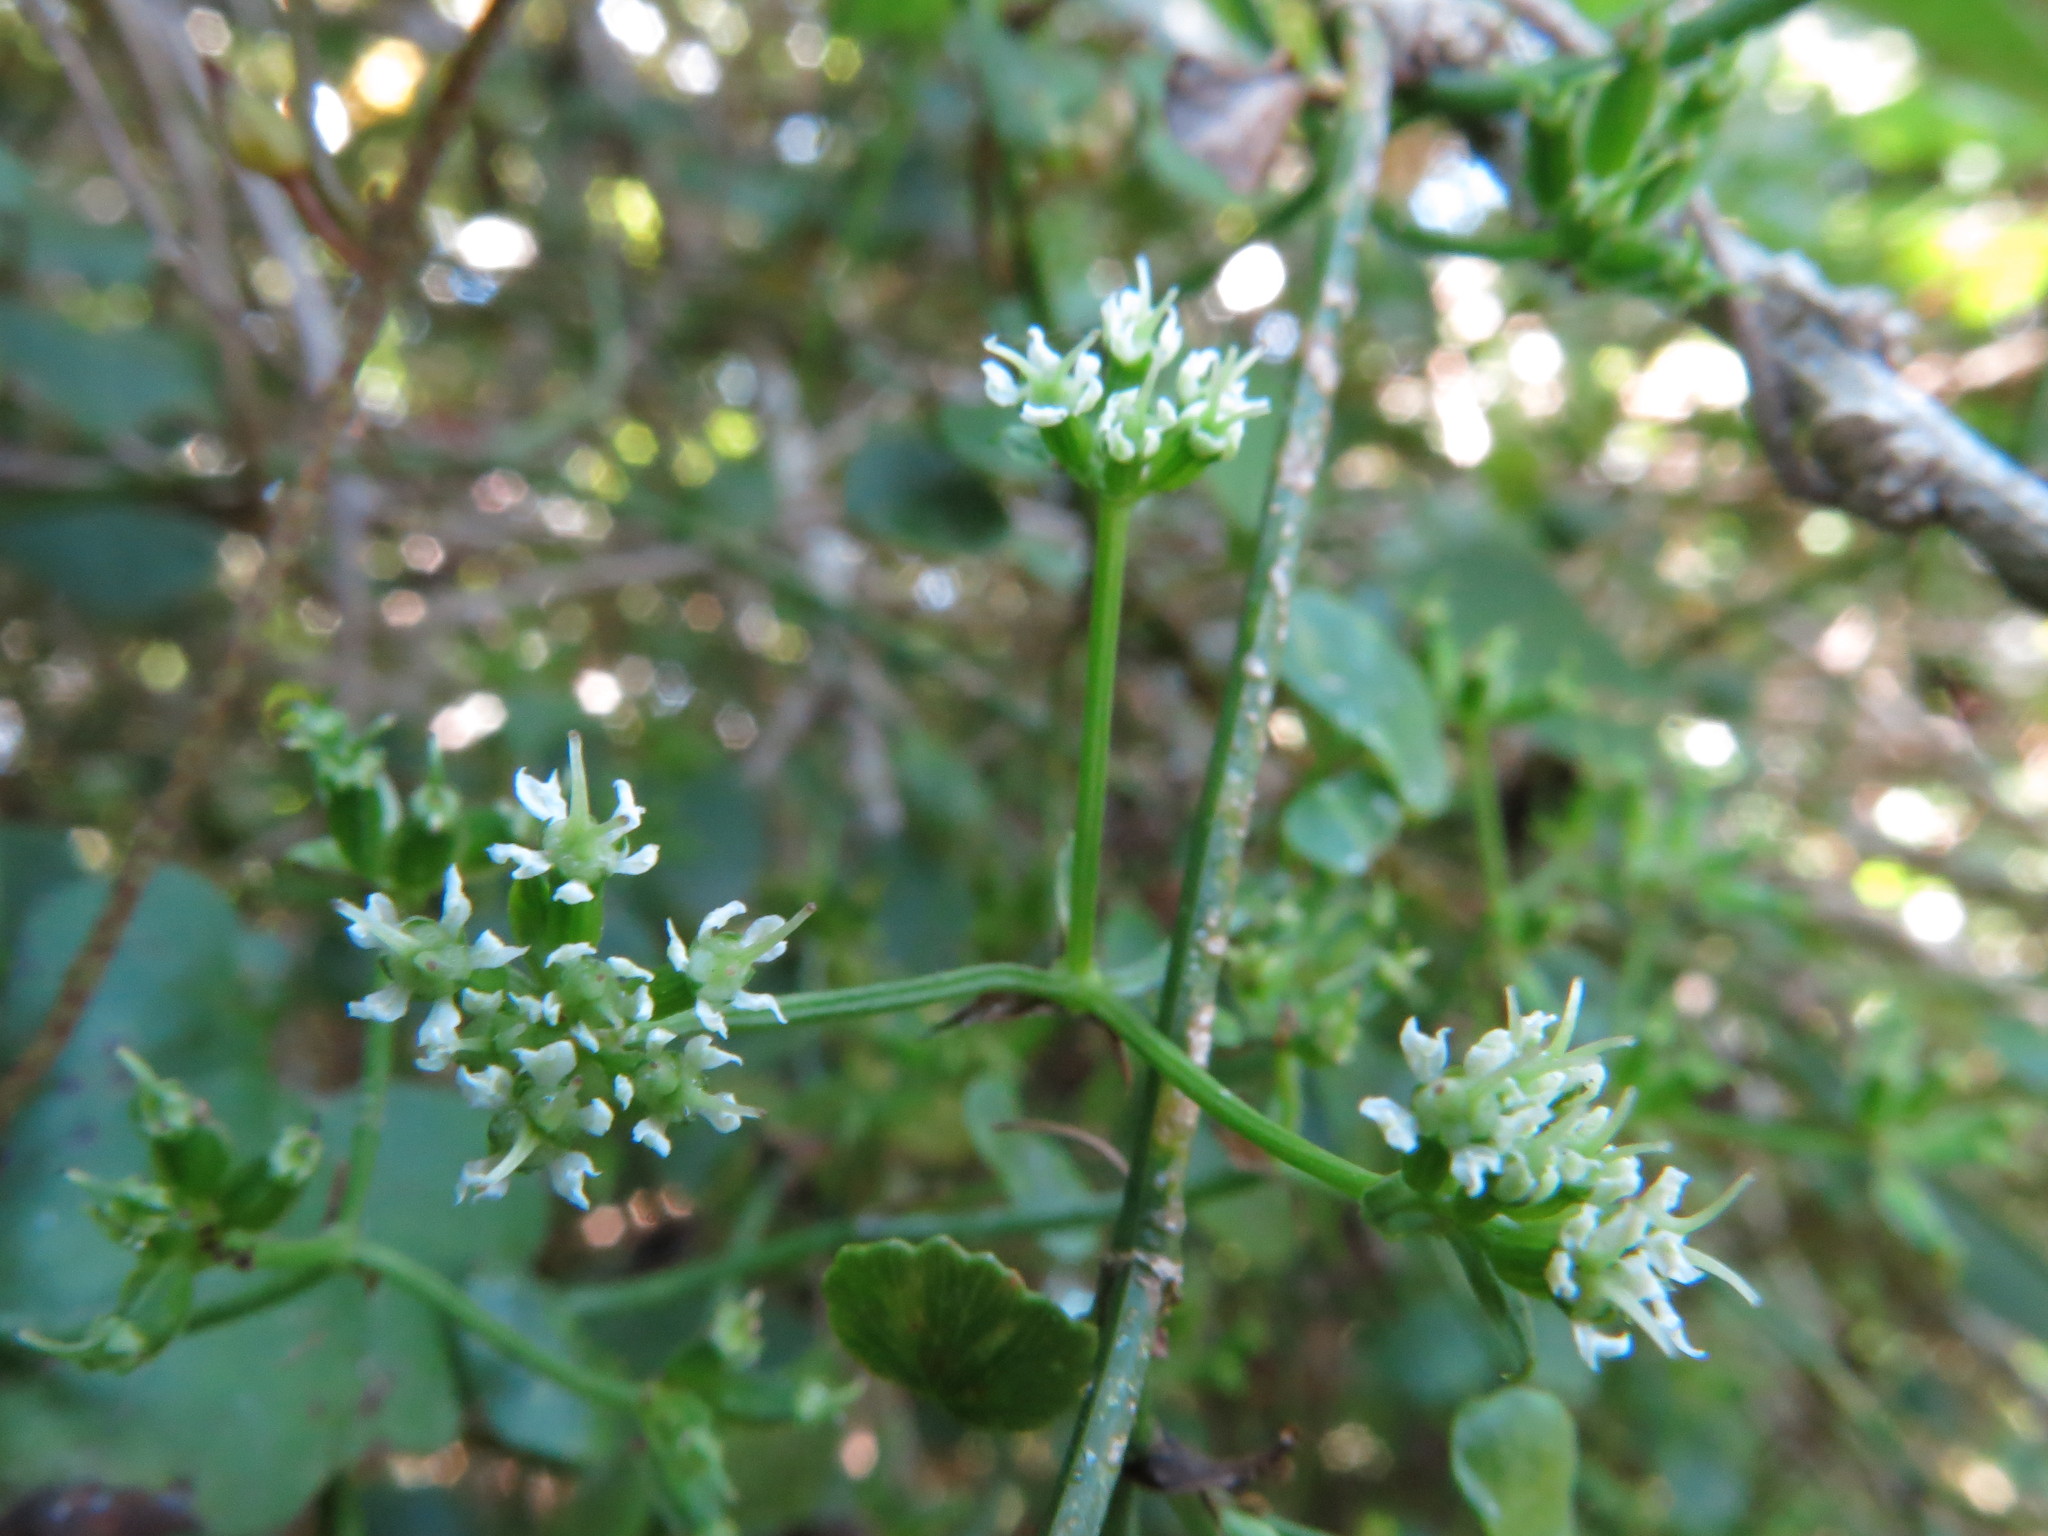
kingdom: Plantae
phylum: Tracheophyta
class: Magnoliopsida
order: Apiales
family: Apiaceae
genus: Scandia
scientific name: Scandia geniculata
